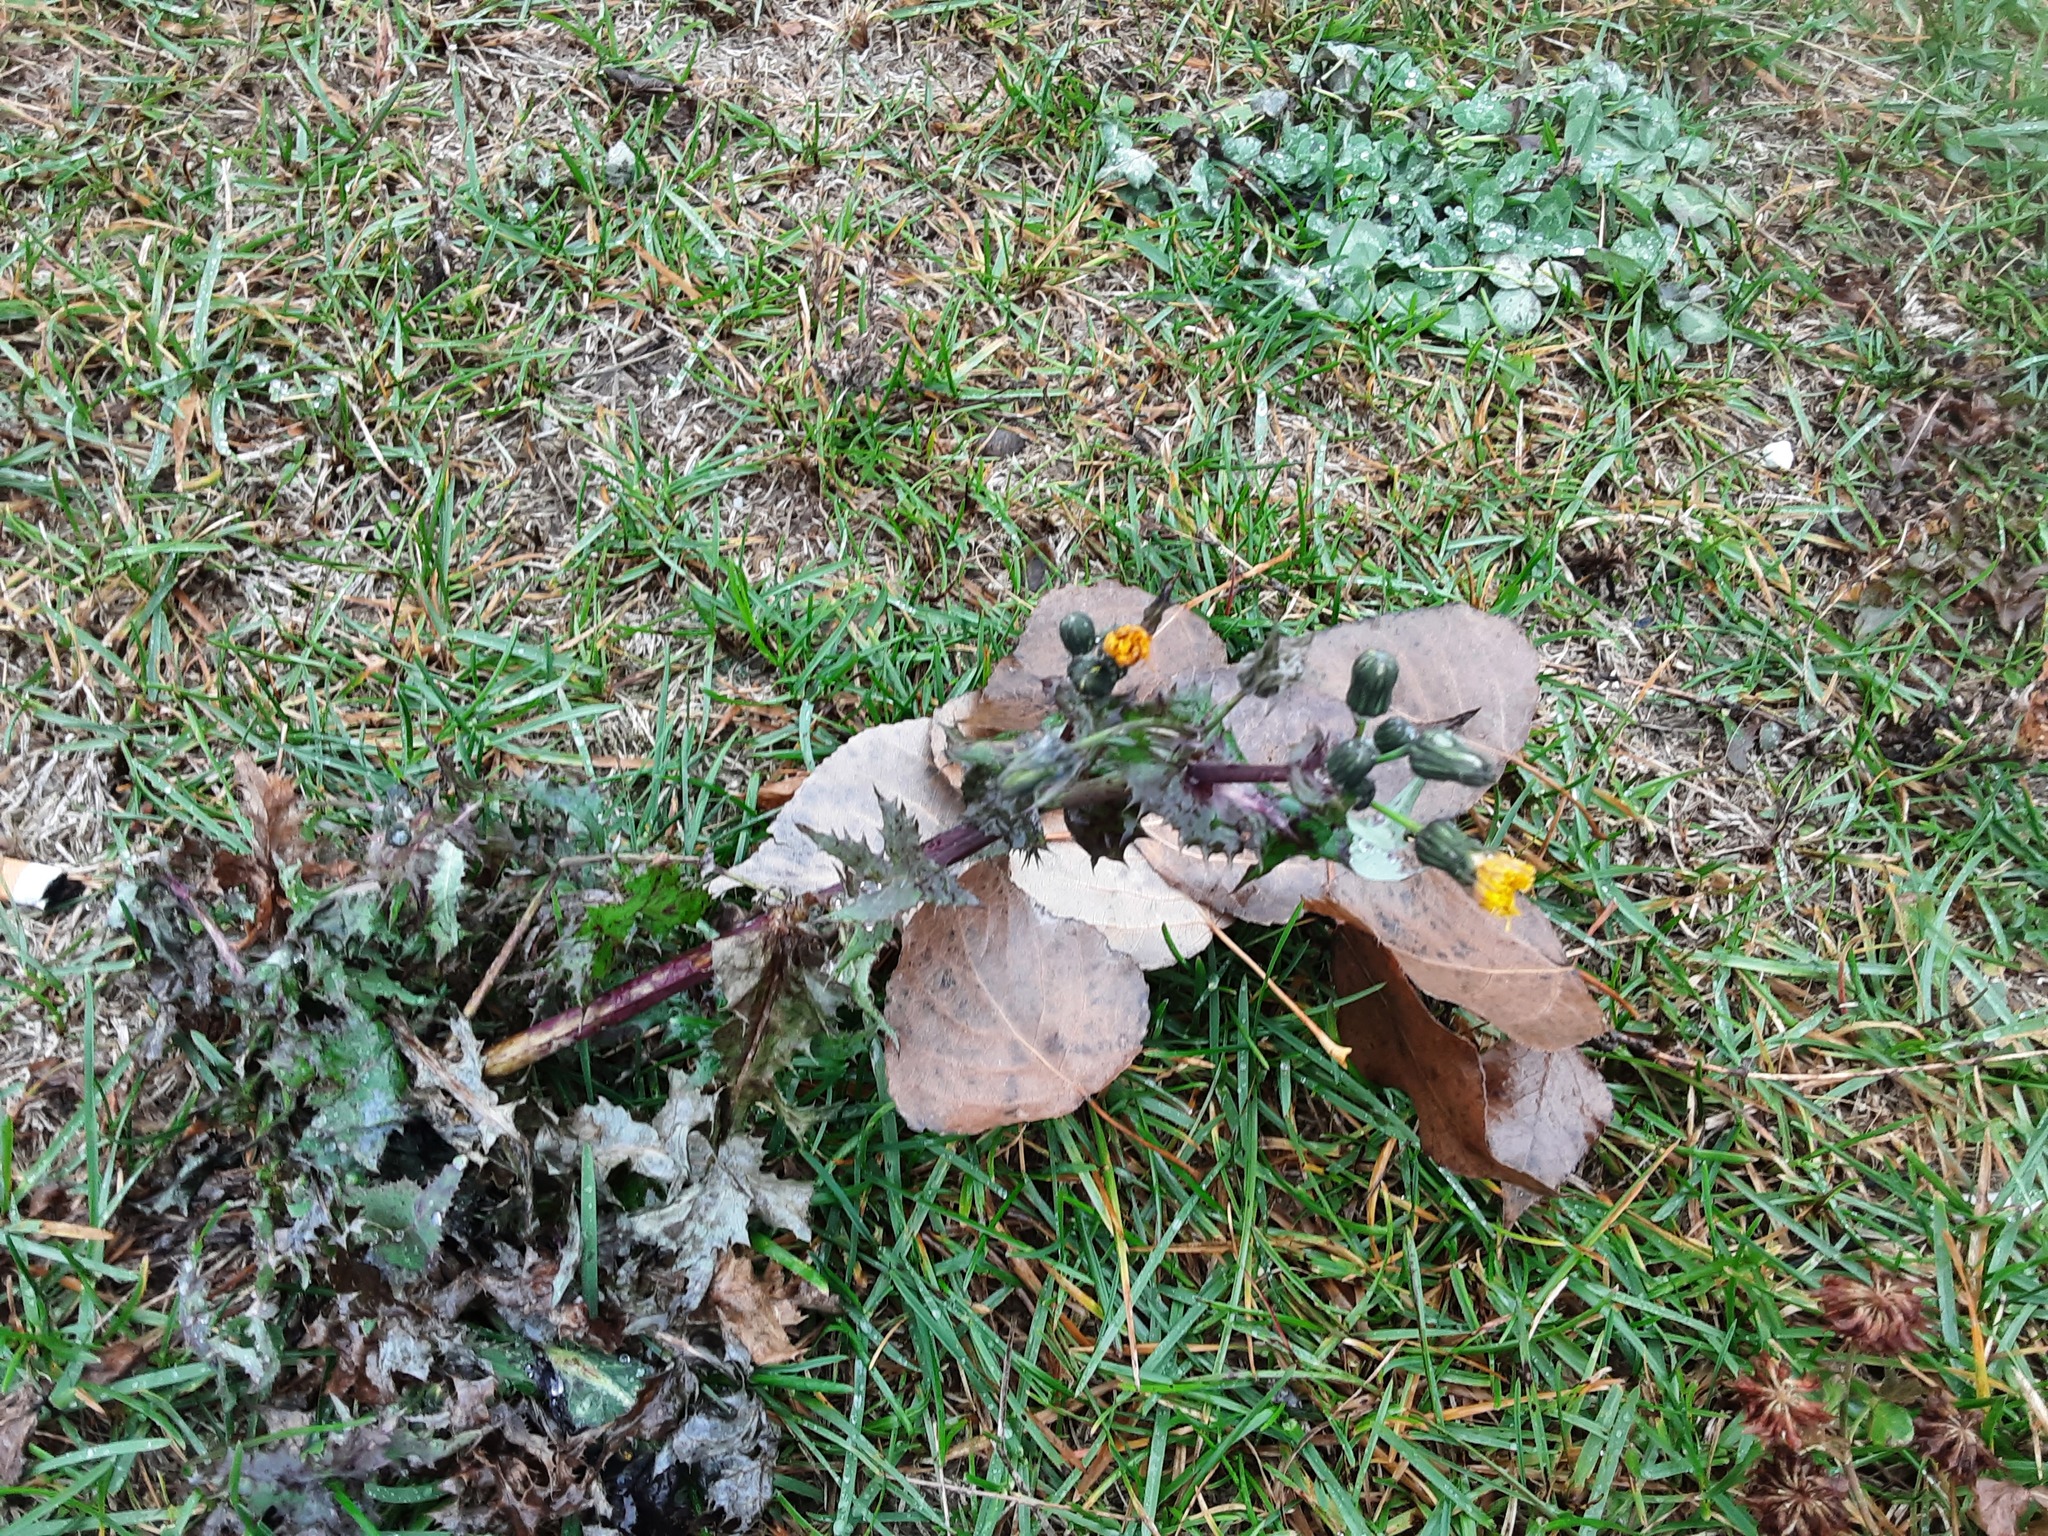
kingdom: Plantae
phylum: Tracheophyta
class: Magnoliopsida
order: Asterales
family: Asteraceae
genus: Sonchus
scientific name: Sonchus oleraceus
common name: Common sowthistle
